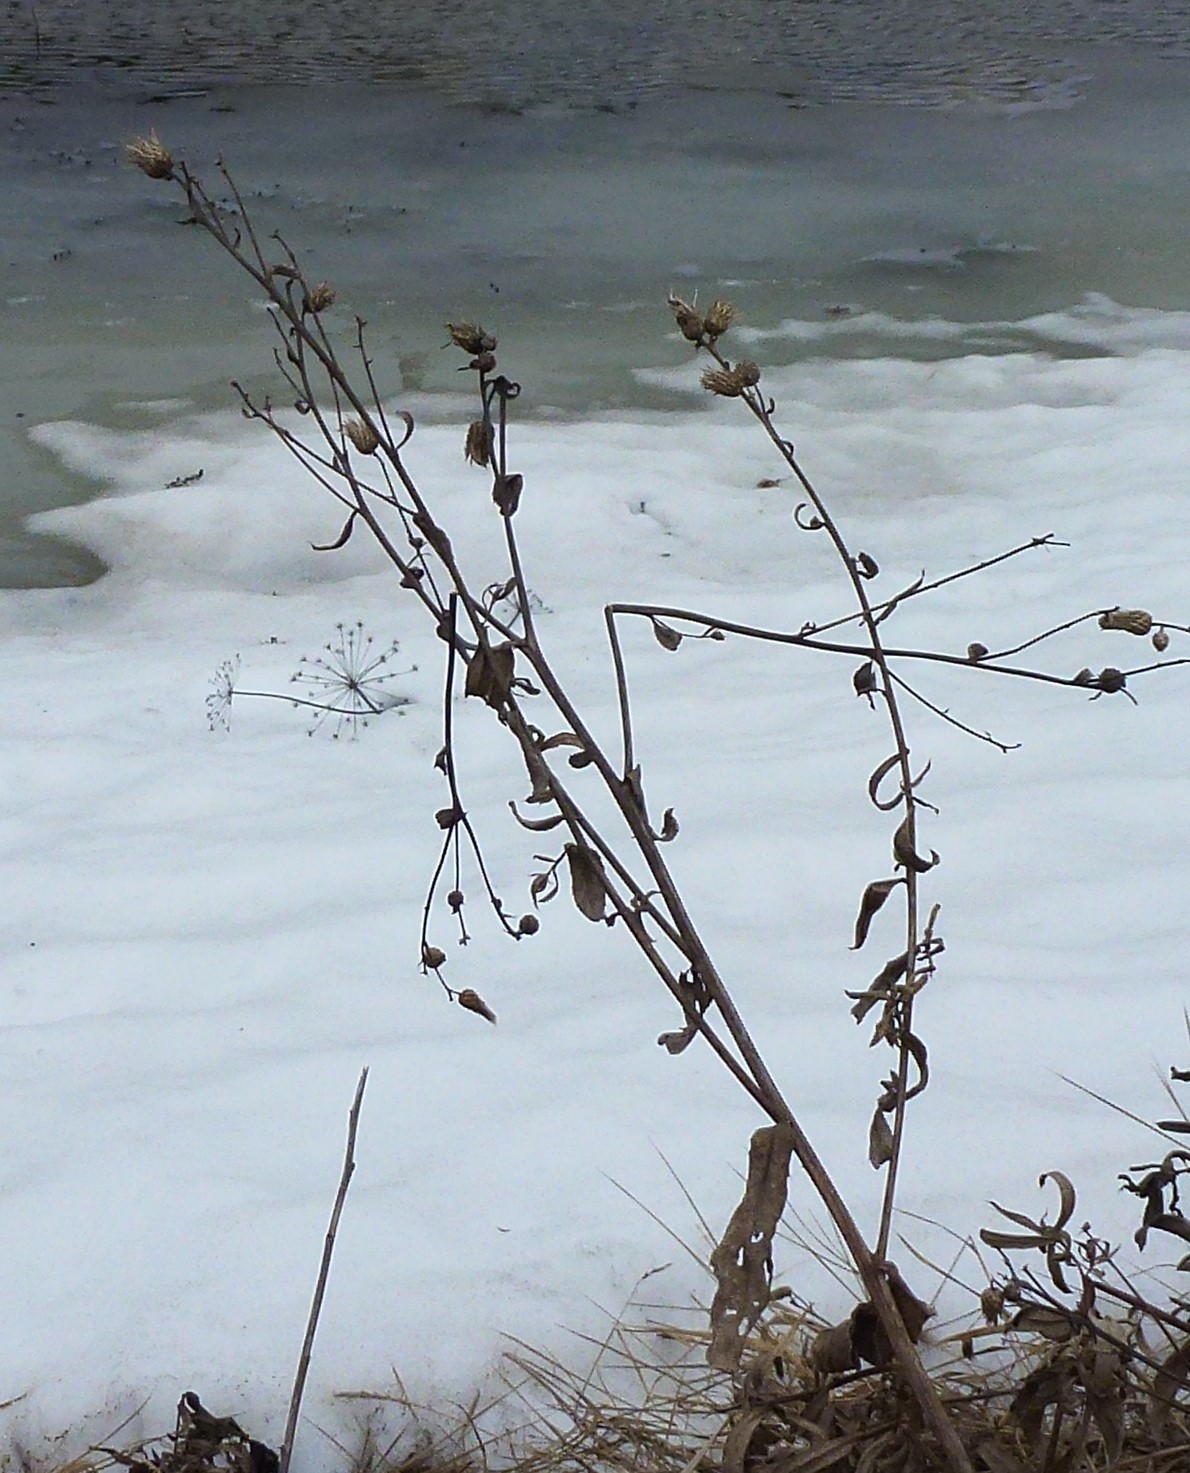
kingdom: Plantae
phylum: Tracheophyta
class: Magnoliopsida
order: Asterales
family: Asteraceae
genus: Cirsium
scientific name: Cirsium vulgare
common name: Bull thistle
